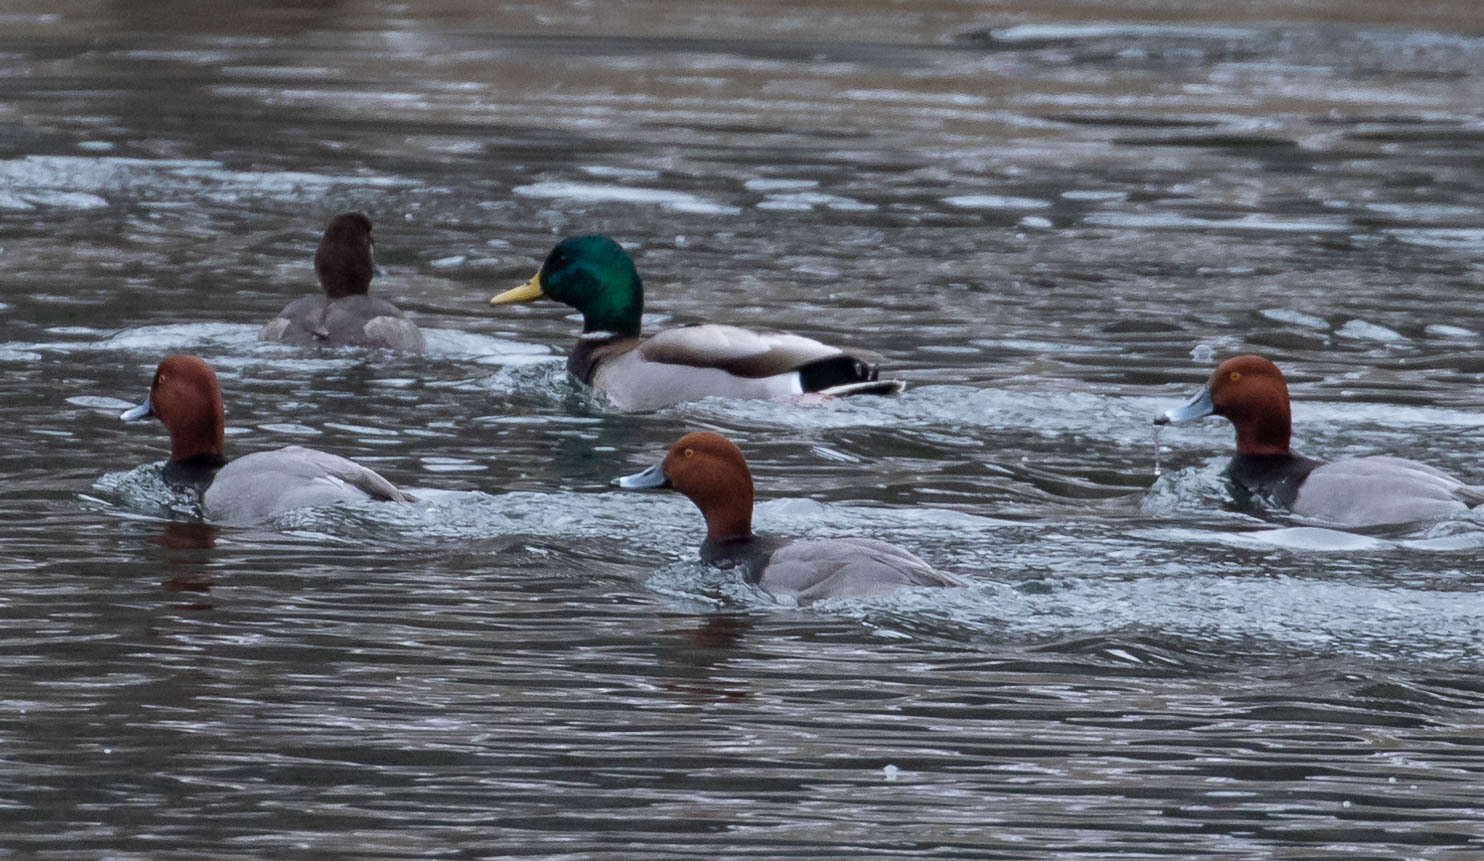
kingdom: Animalia
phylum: Chordata
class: Aves
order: Anseriformes
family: Anatidae
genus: Anas
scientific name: Anas platyrhynchos
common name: Mallard
